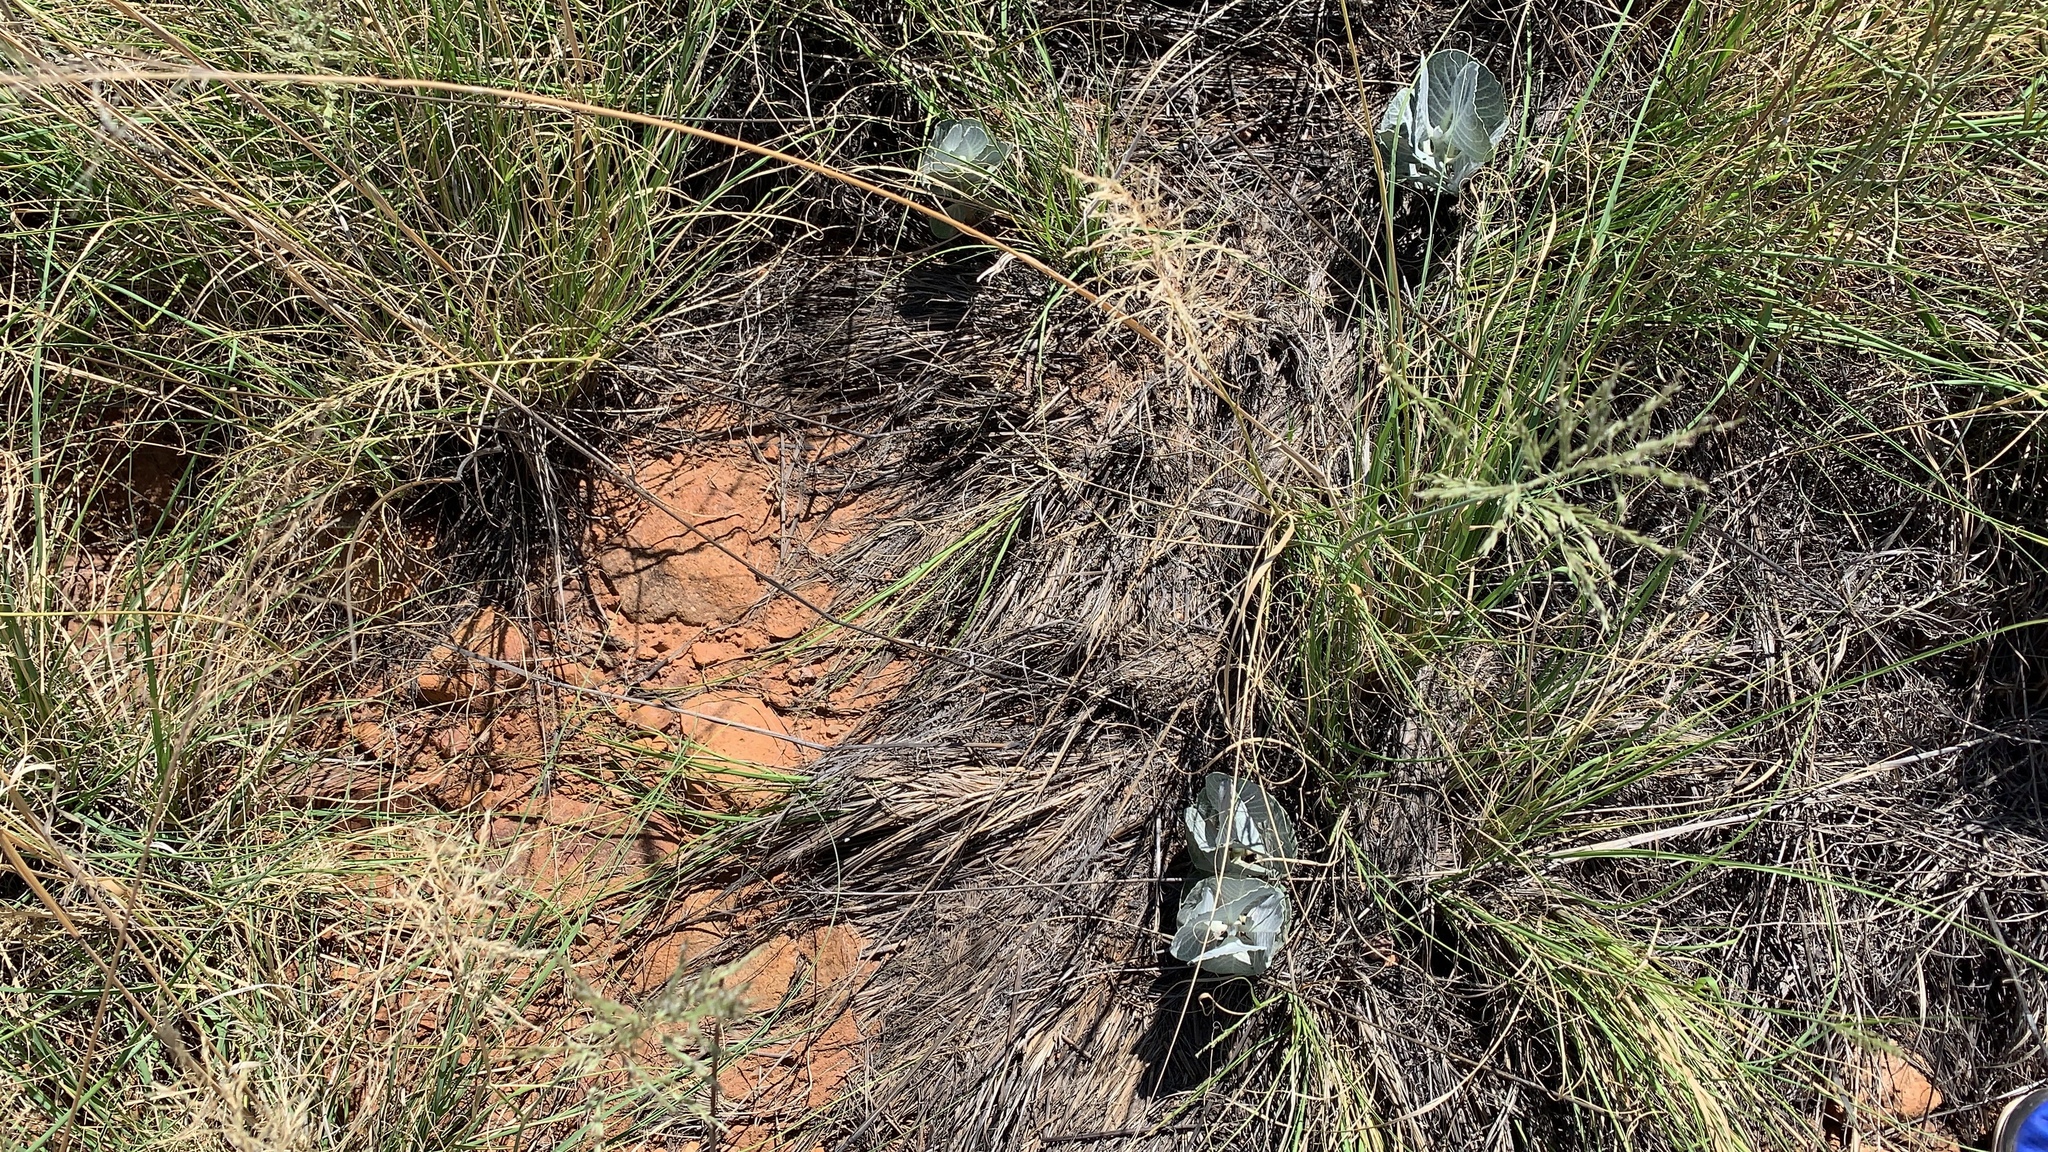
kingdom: Plantae
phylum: Tracheophyta
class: Magnoliopsida
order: Gentianales
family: Apocynaceae
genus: Asclepias
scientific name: Asclepias nummularia
